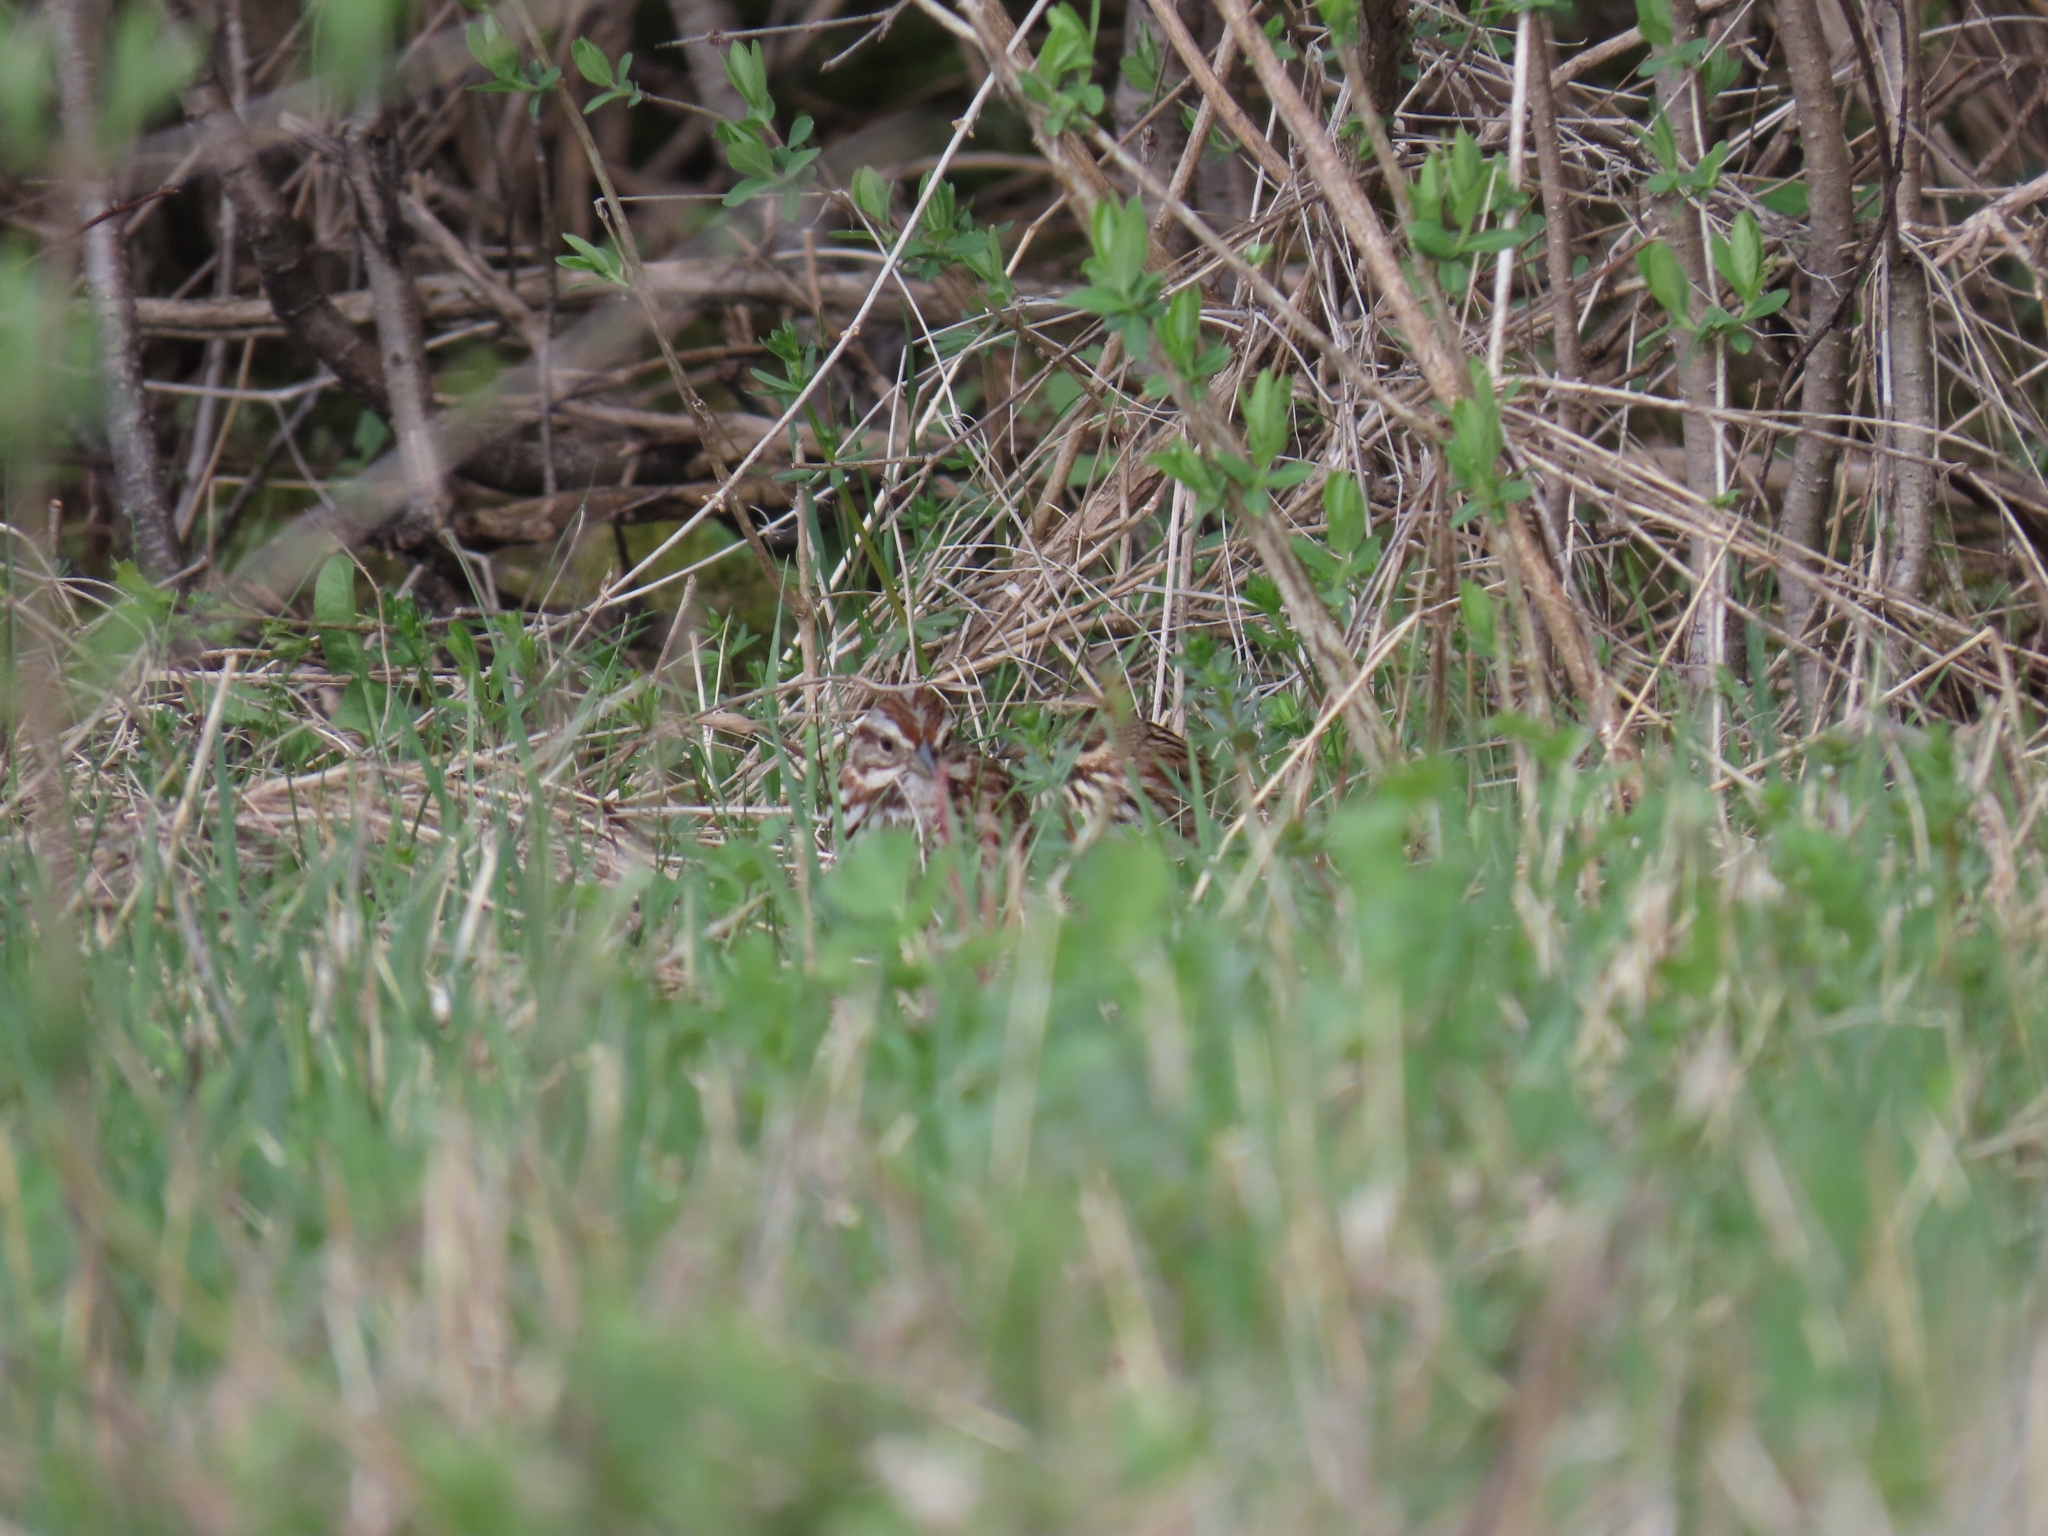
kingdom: Animalia
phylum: Chordata
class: Aves
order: Passeriformes
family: Passerellidae
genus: Melospiza
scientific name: Melospiza melodia
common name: Song sparrow
